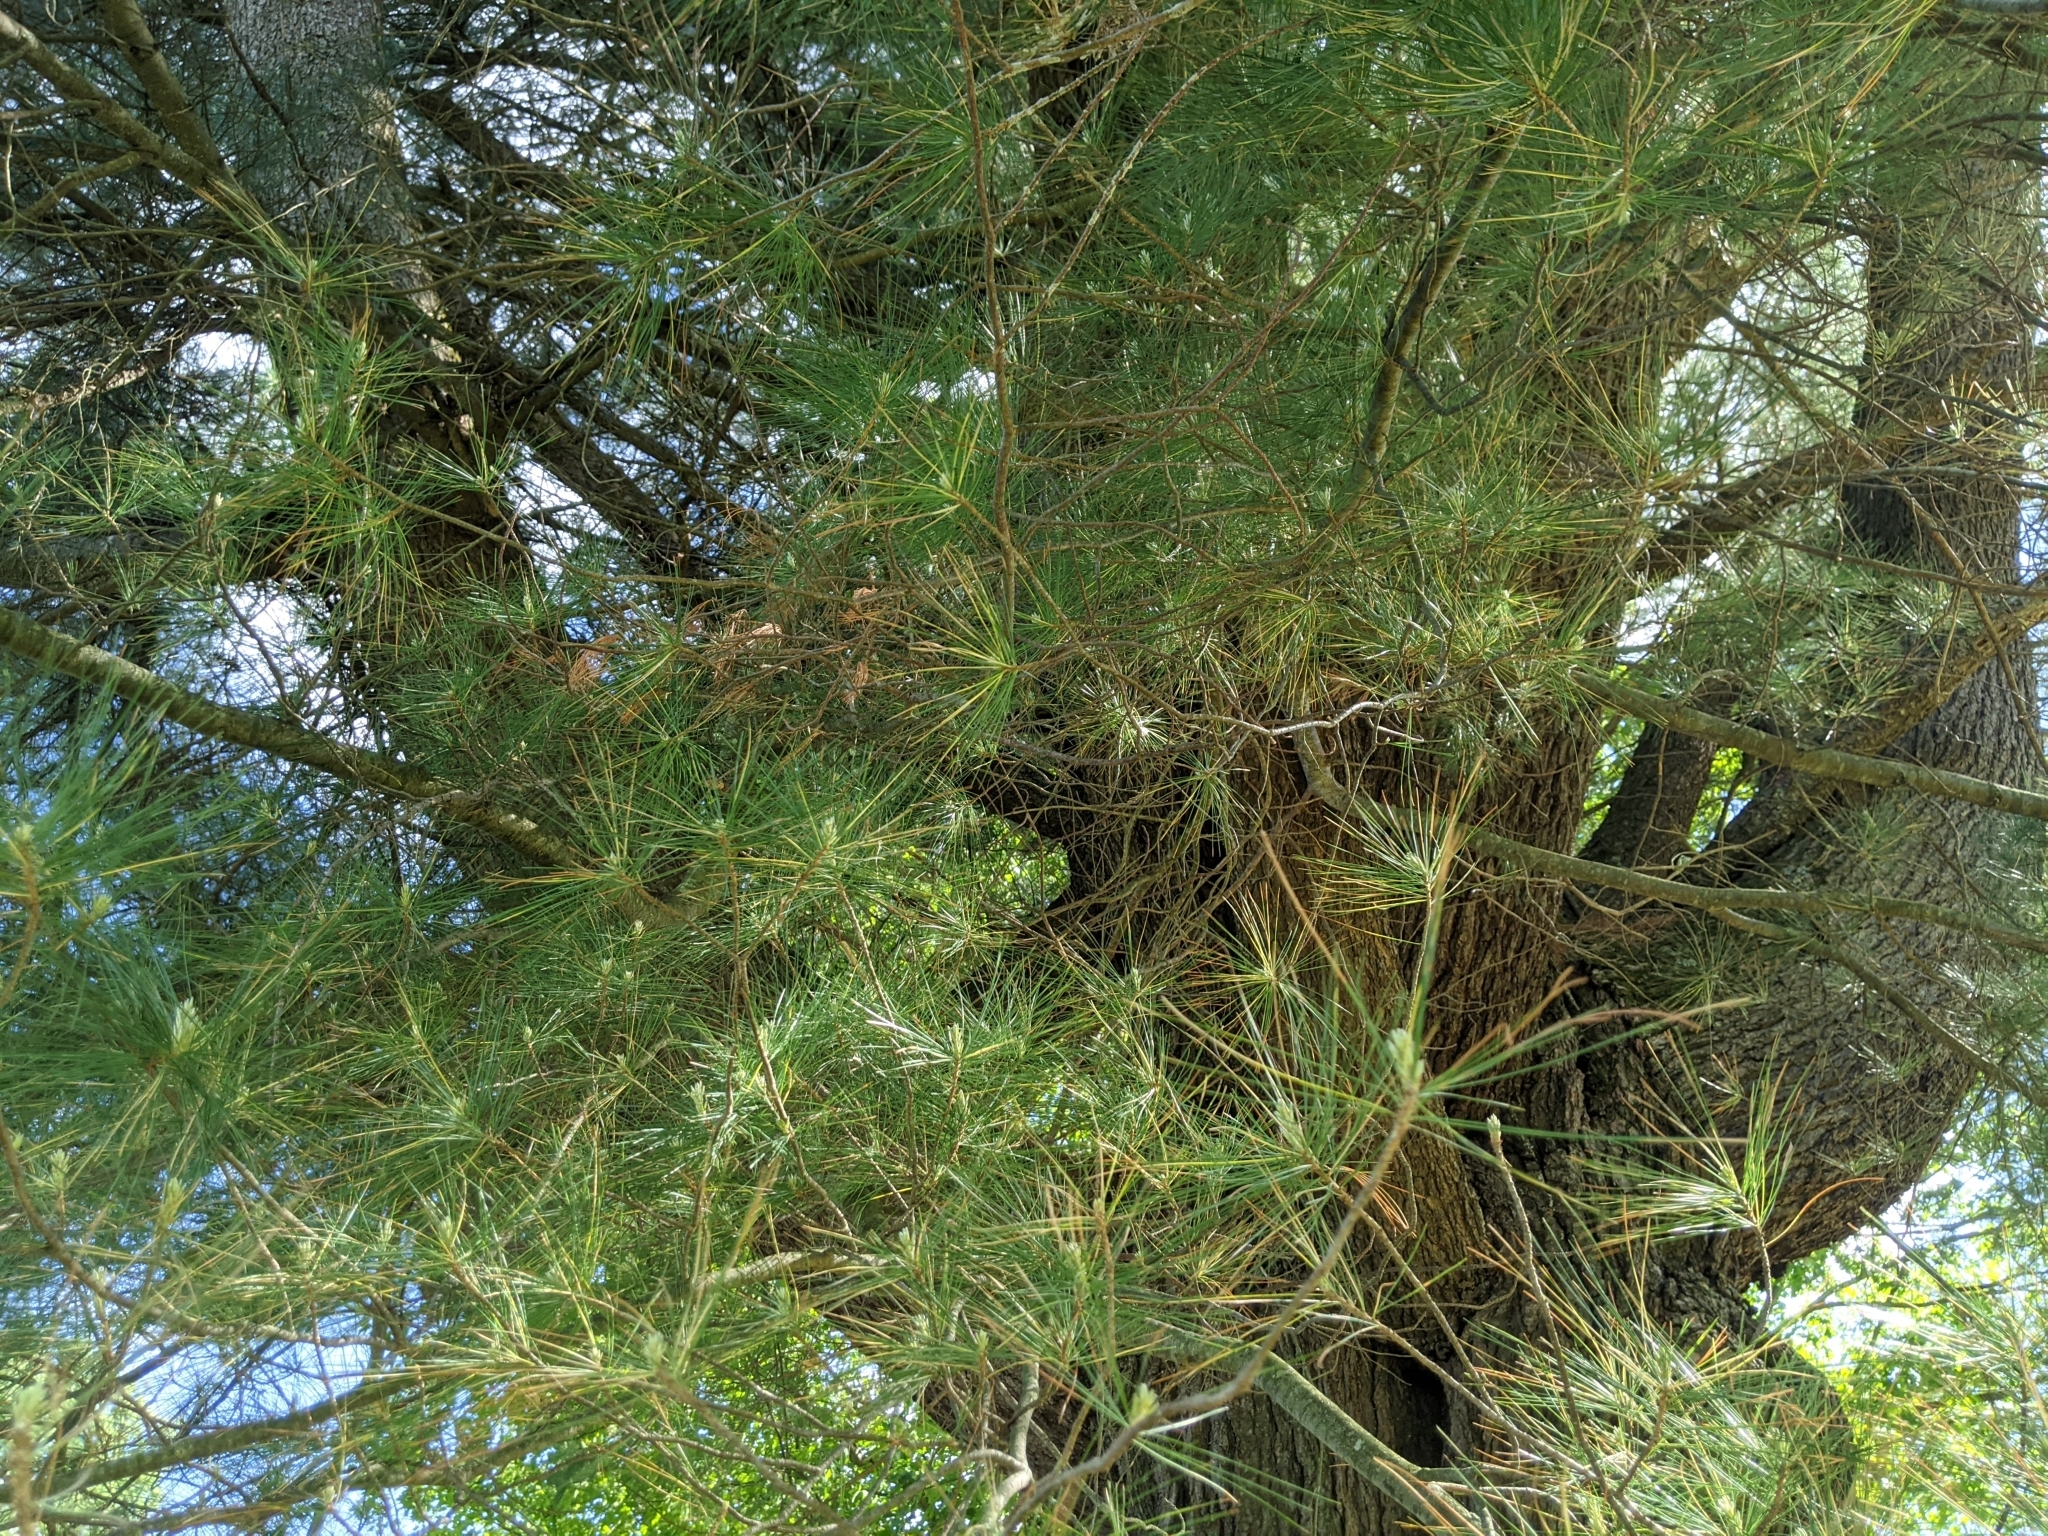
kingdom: Plantae
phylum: Tracheophyta
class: Pinopsida
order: Pinales
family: Pinaceae
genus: Pinus
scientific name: Pinus strobus
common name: Weymouth pine
